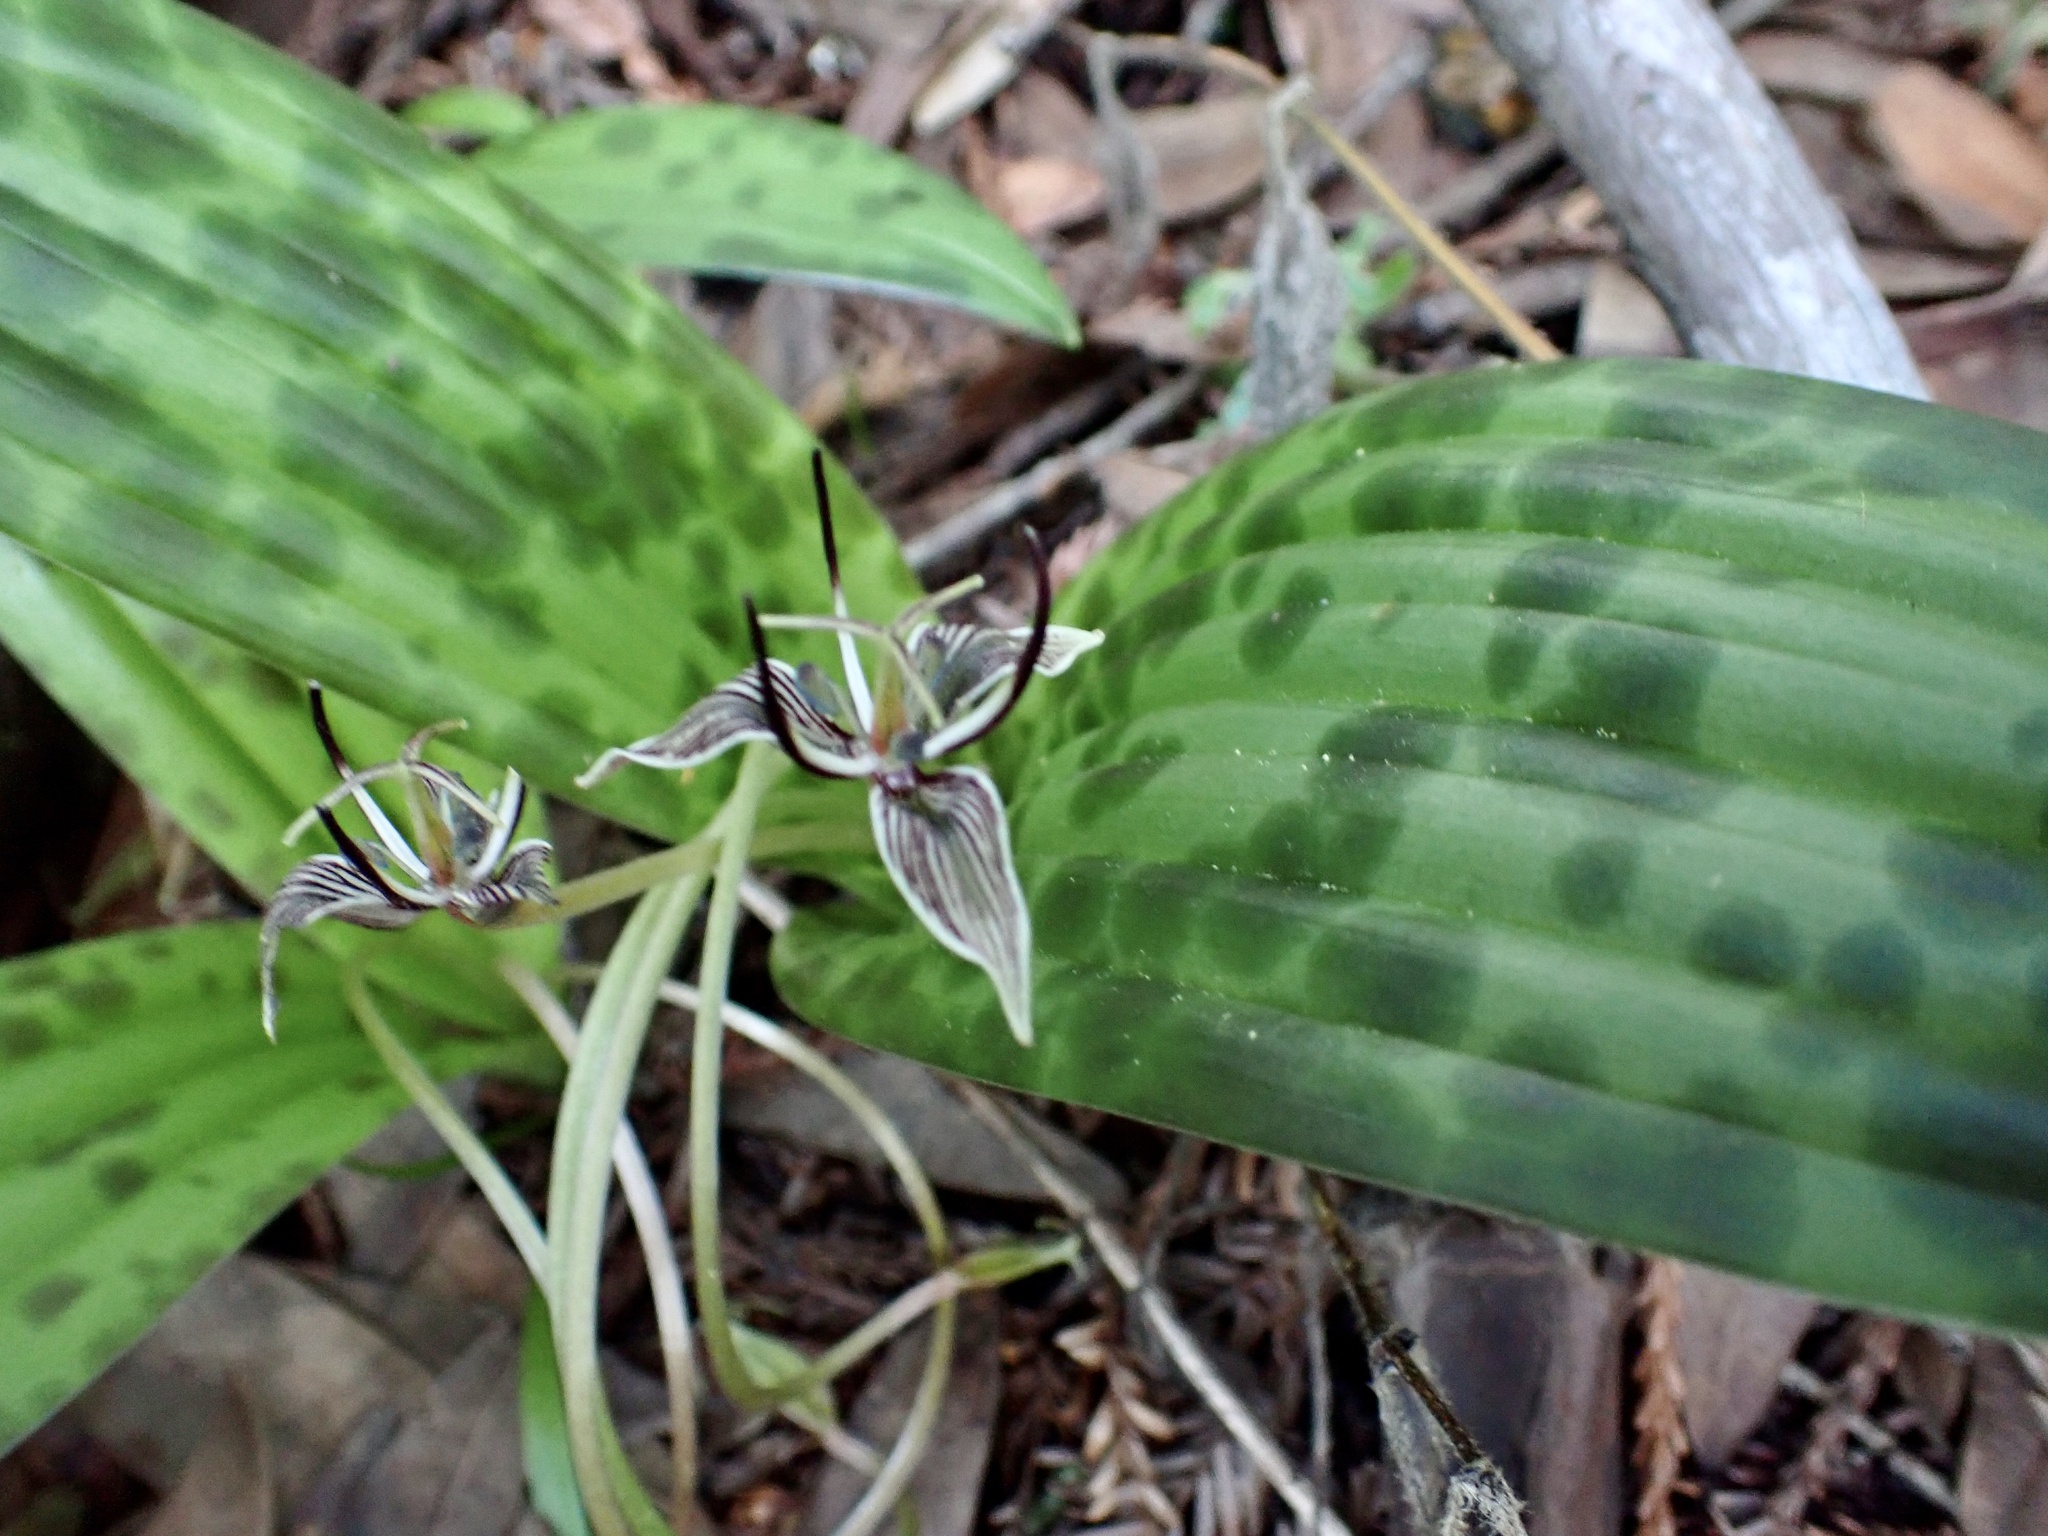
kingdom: Plantae
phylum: Tracheophyta
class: Liliopsida
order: Liliales
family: Liliaceae
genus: Scoliopus
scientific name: Scoliopus bigelovii
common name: Foetid adder's-tongue
